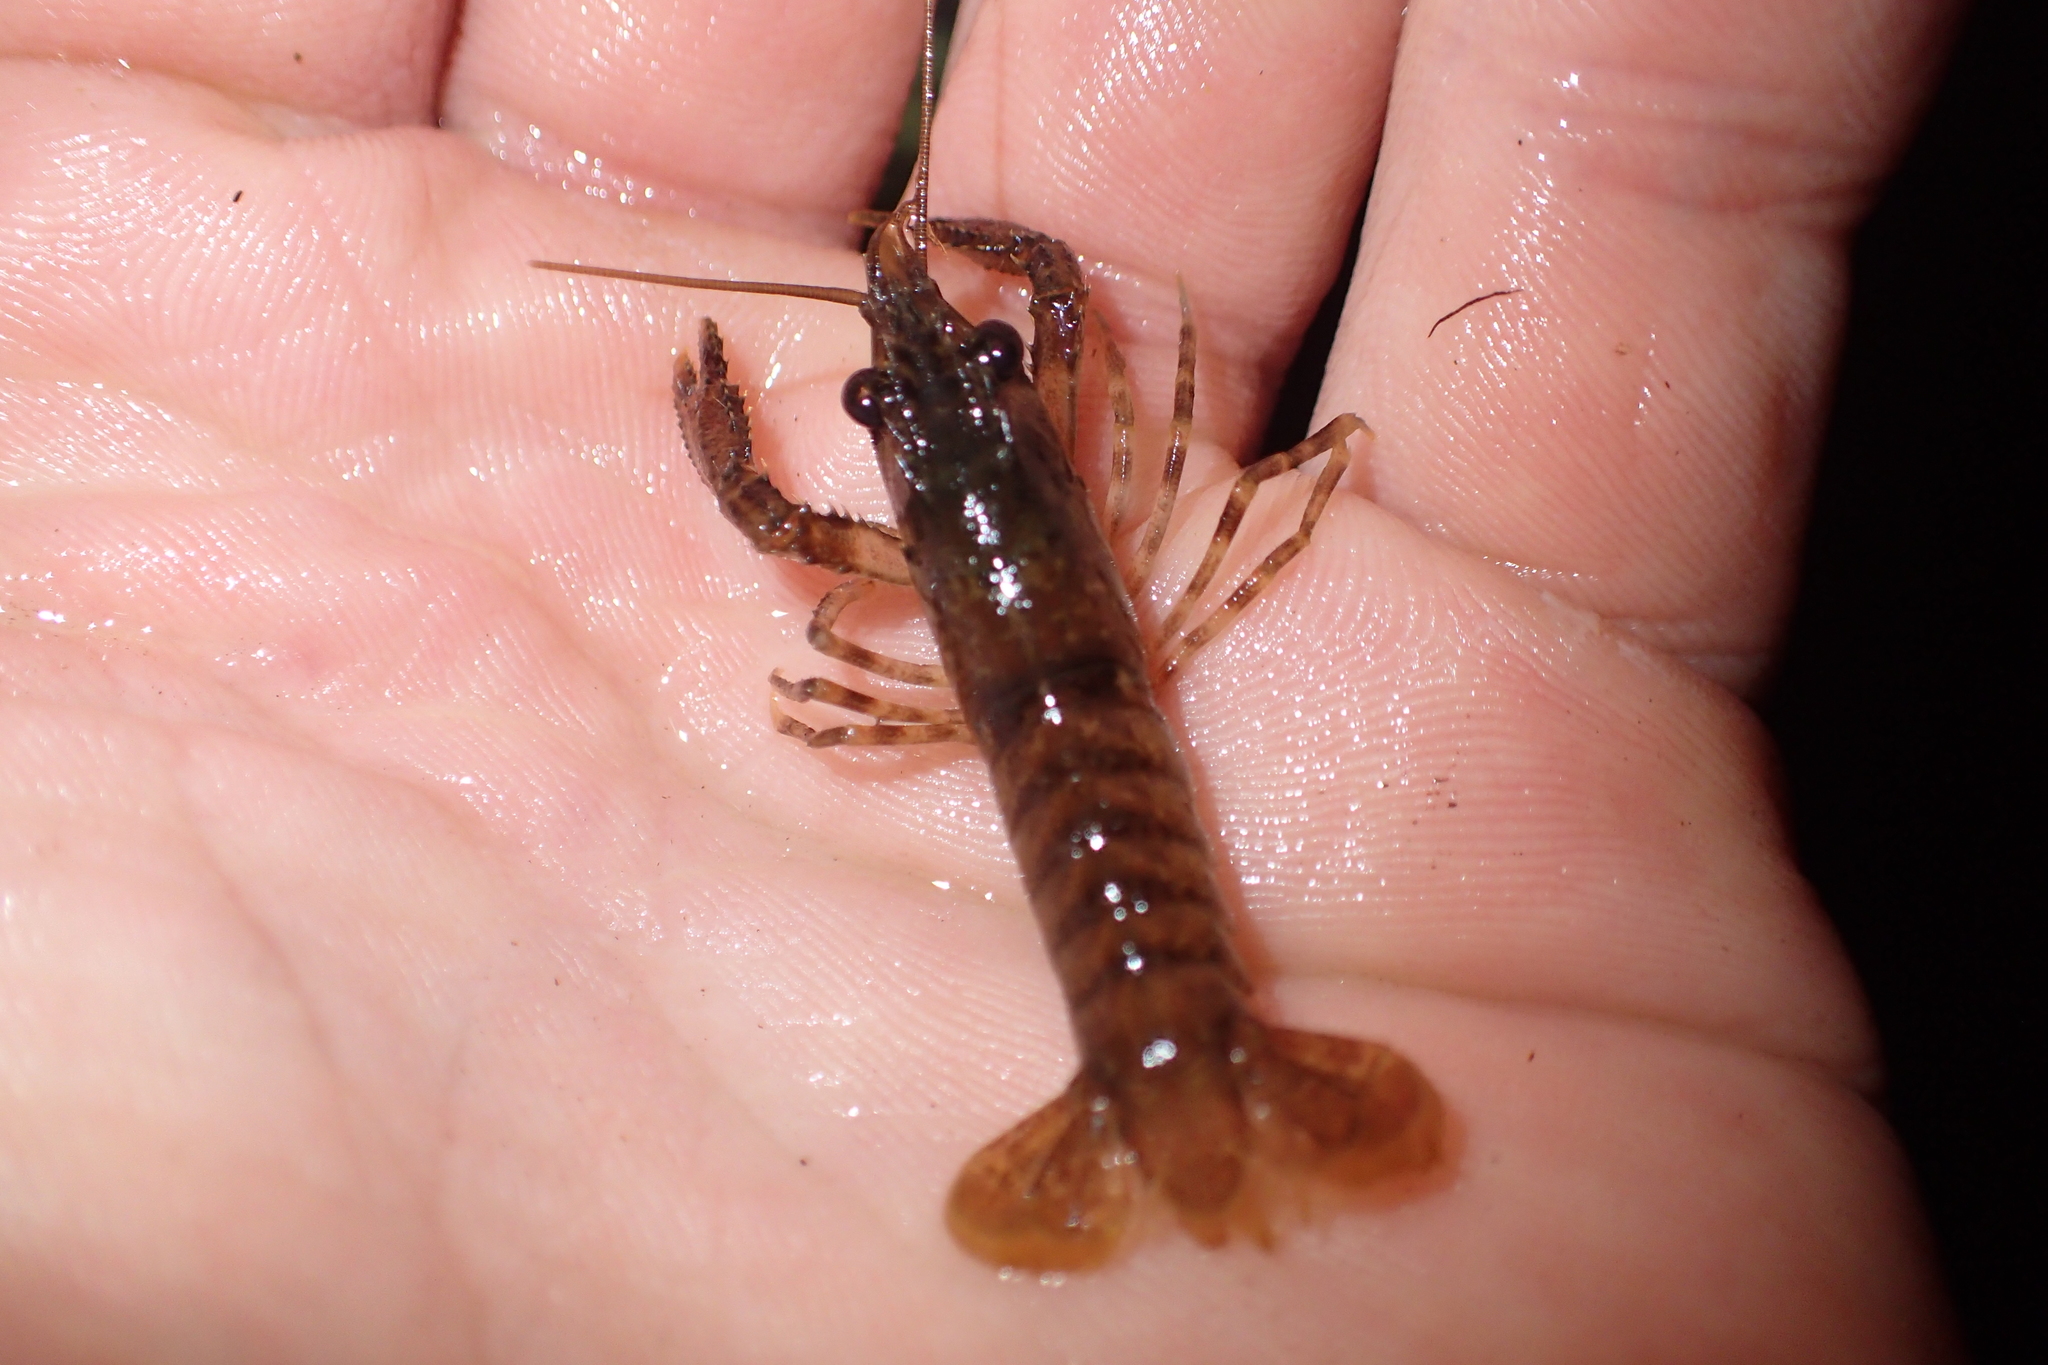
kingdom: Animalia
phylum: Arthropoda
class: Malacostraca
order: Decapoda
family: Parastacidae
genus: Paranephrops
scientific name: Paranephrops planifrons
